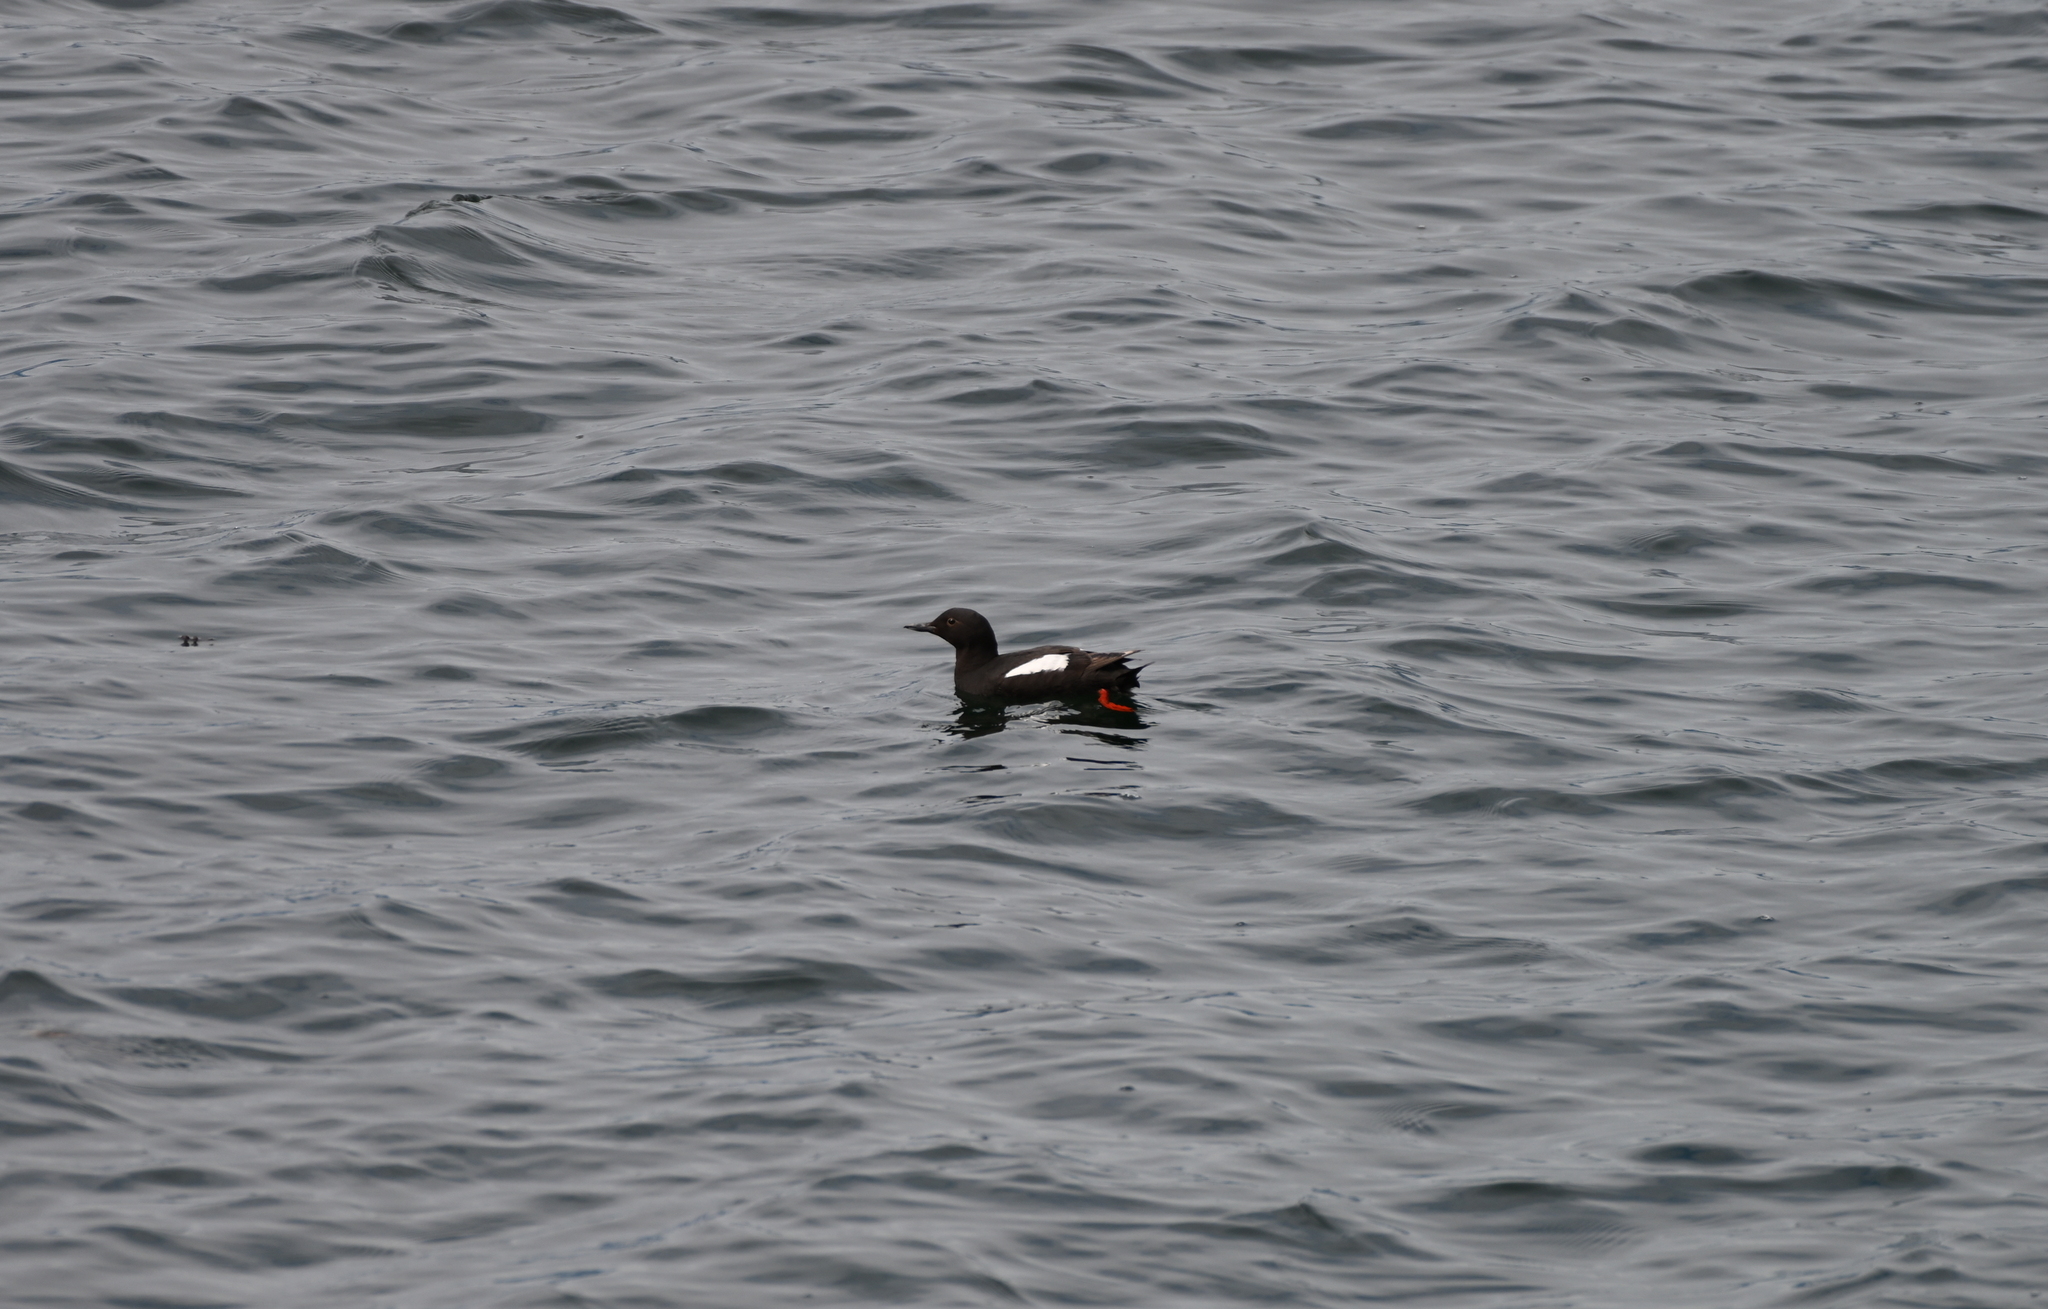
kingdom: Animalia
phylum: Chordata
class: Aves
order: Charadriiformes
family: Alcidae
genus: Cepphus
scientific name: Cepphus columba
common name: Pigeon guillemot
